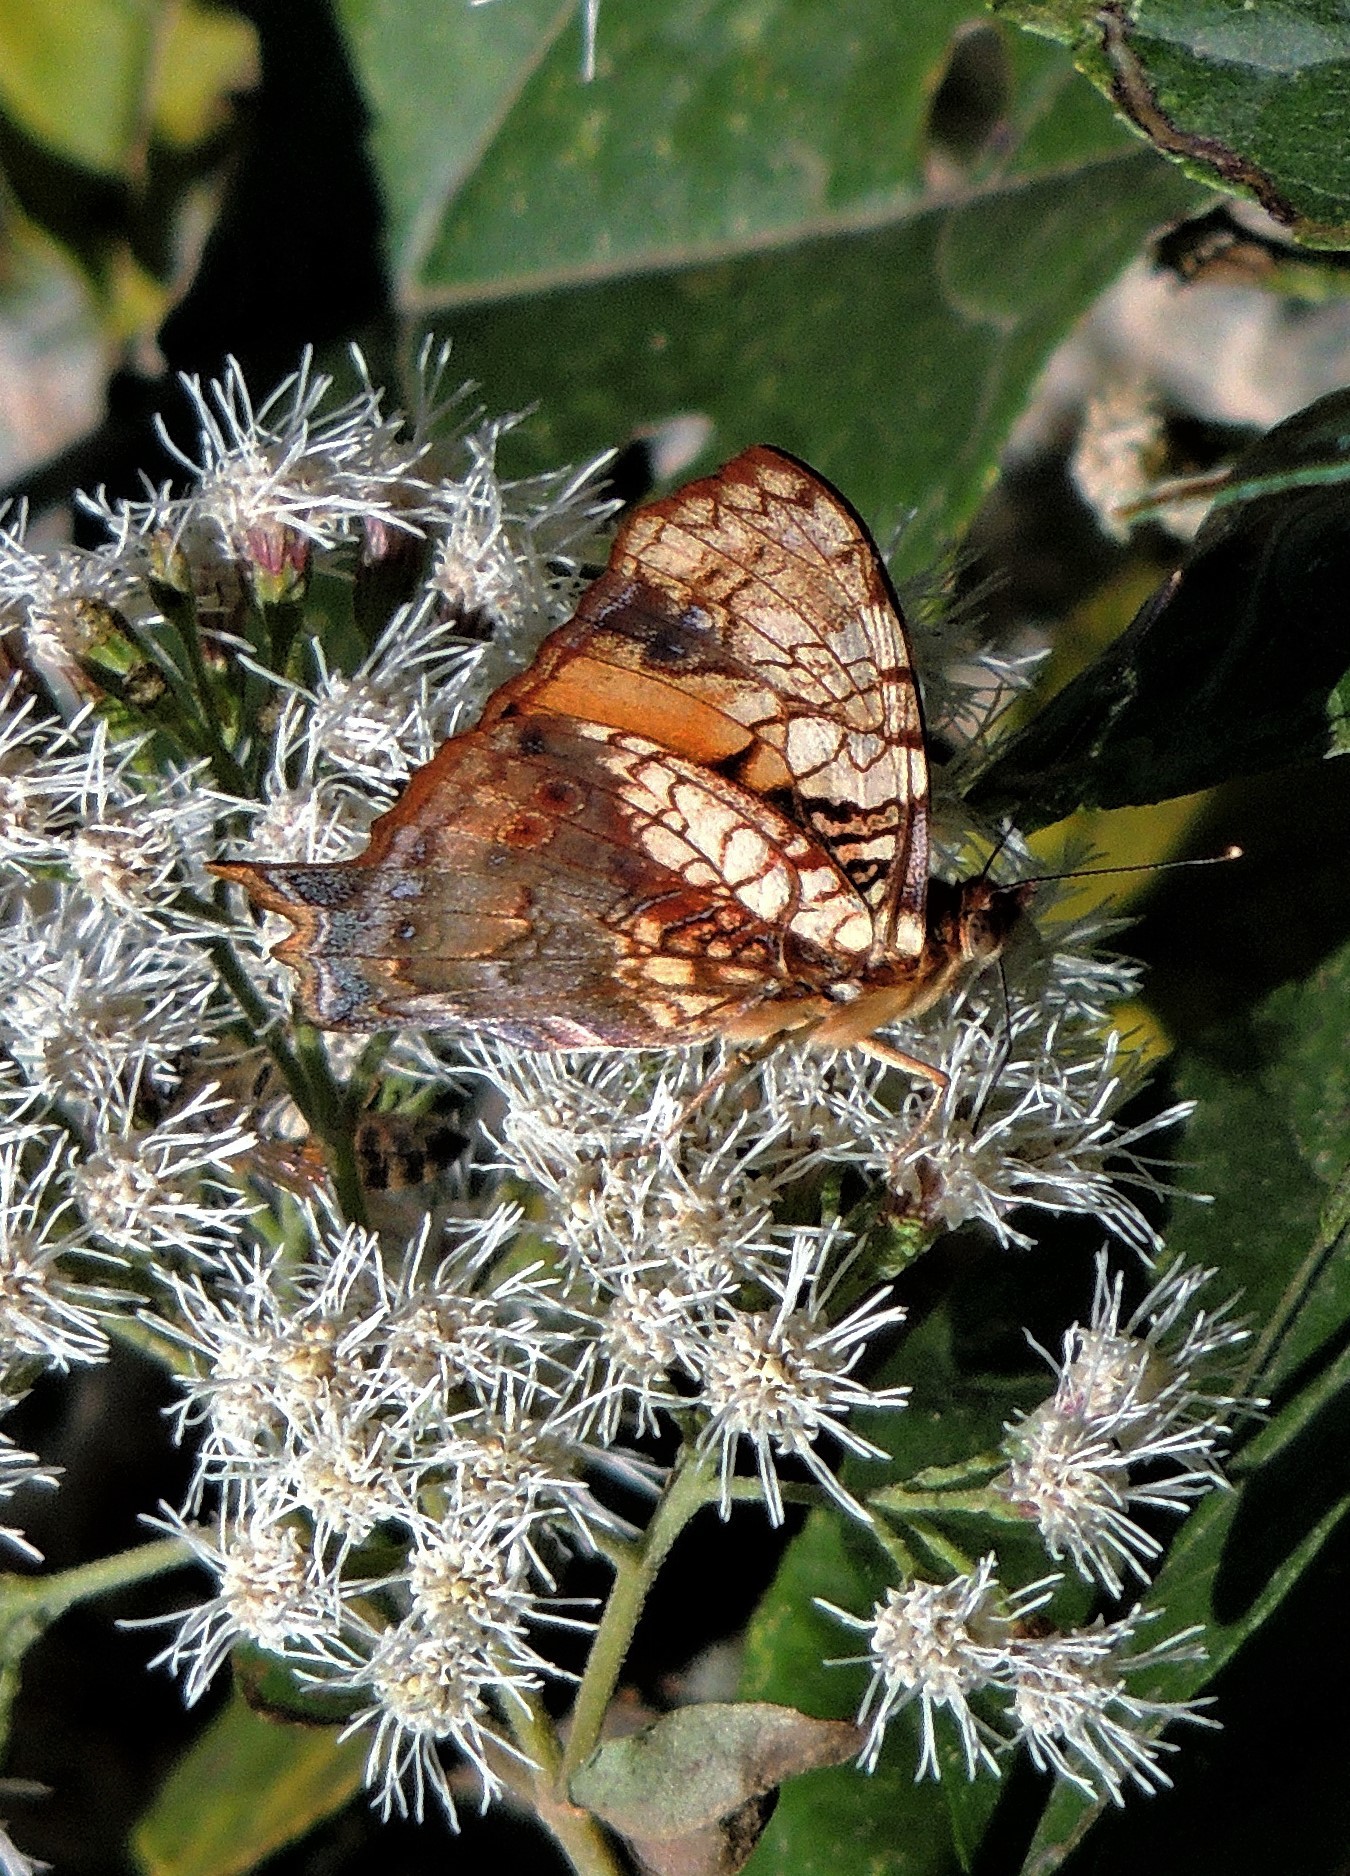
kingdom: Animalia
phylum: Arthropoda
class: Insecta
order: Lepidoptera
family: Nymphalidae
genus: Hypanartia
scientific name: Hypanartia lethe
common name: Orange mapwing
